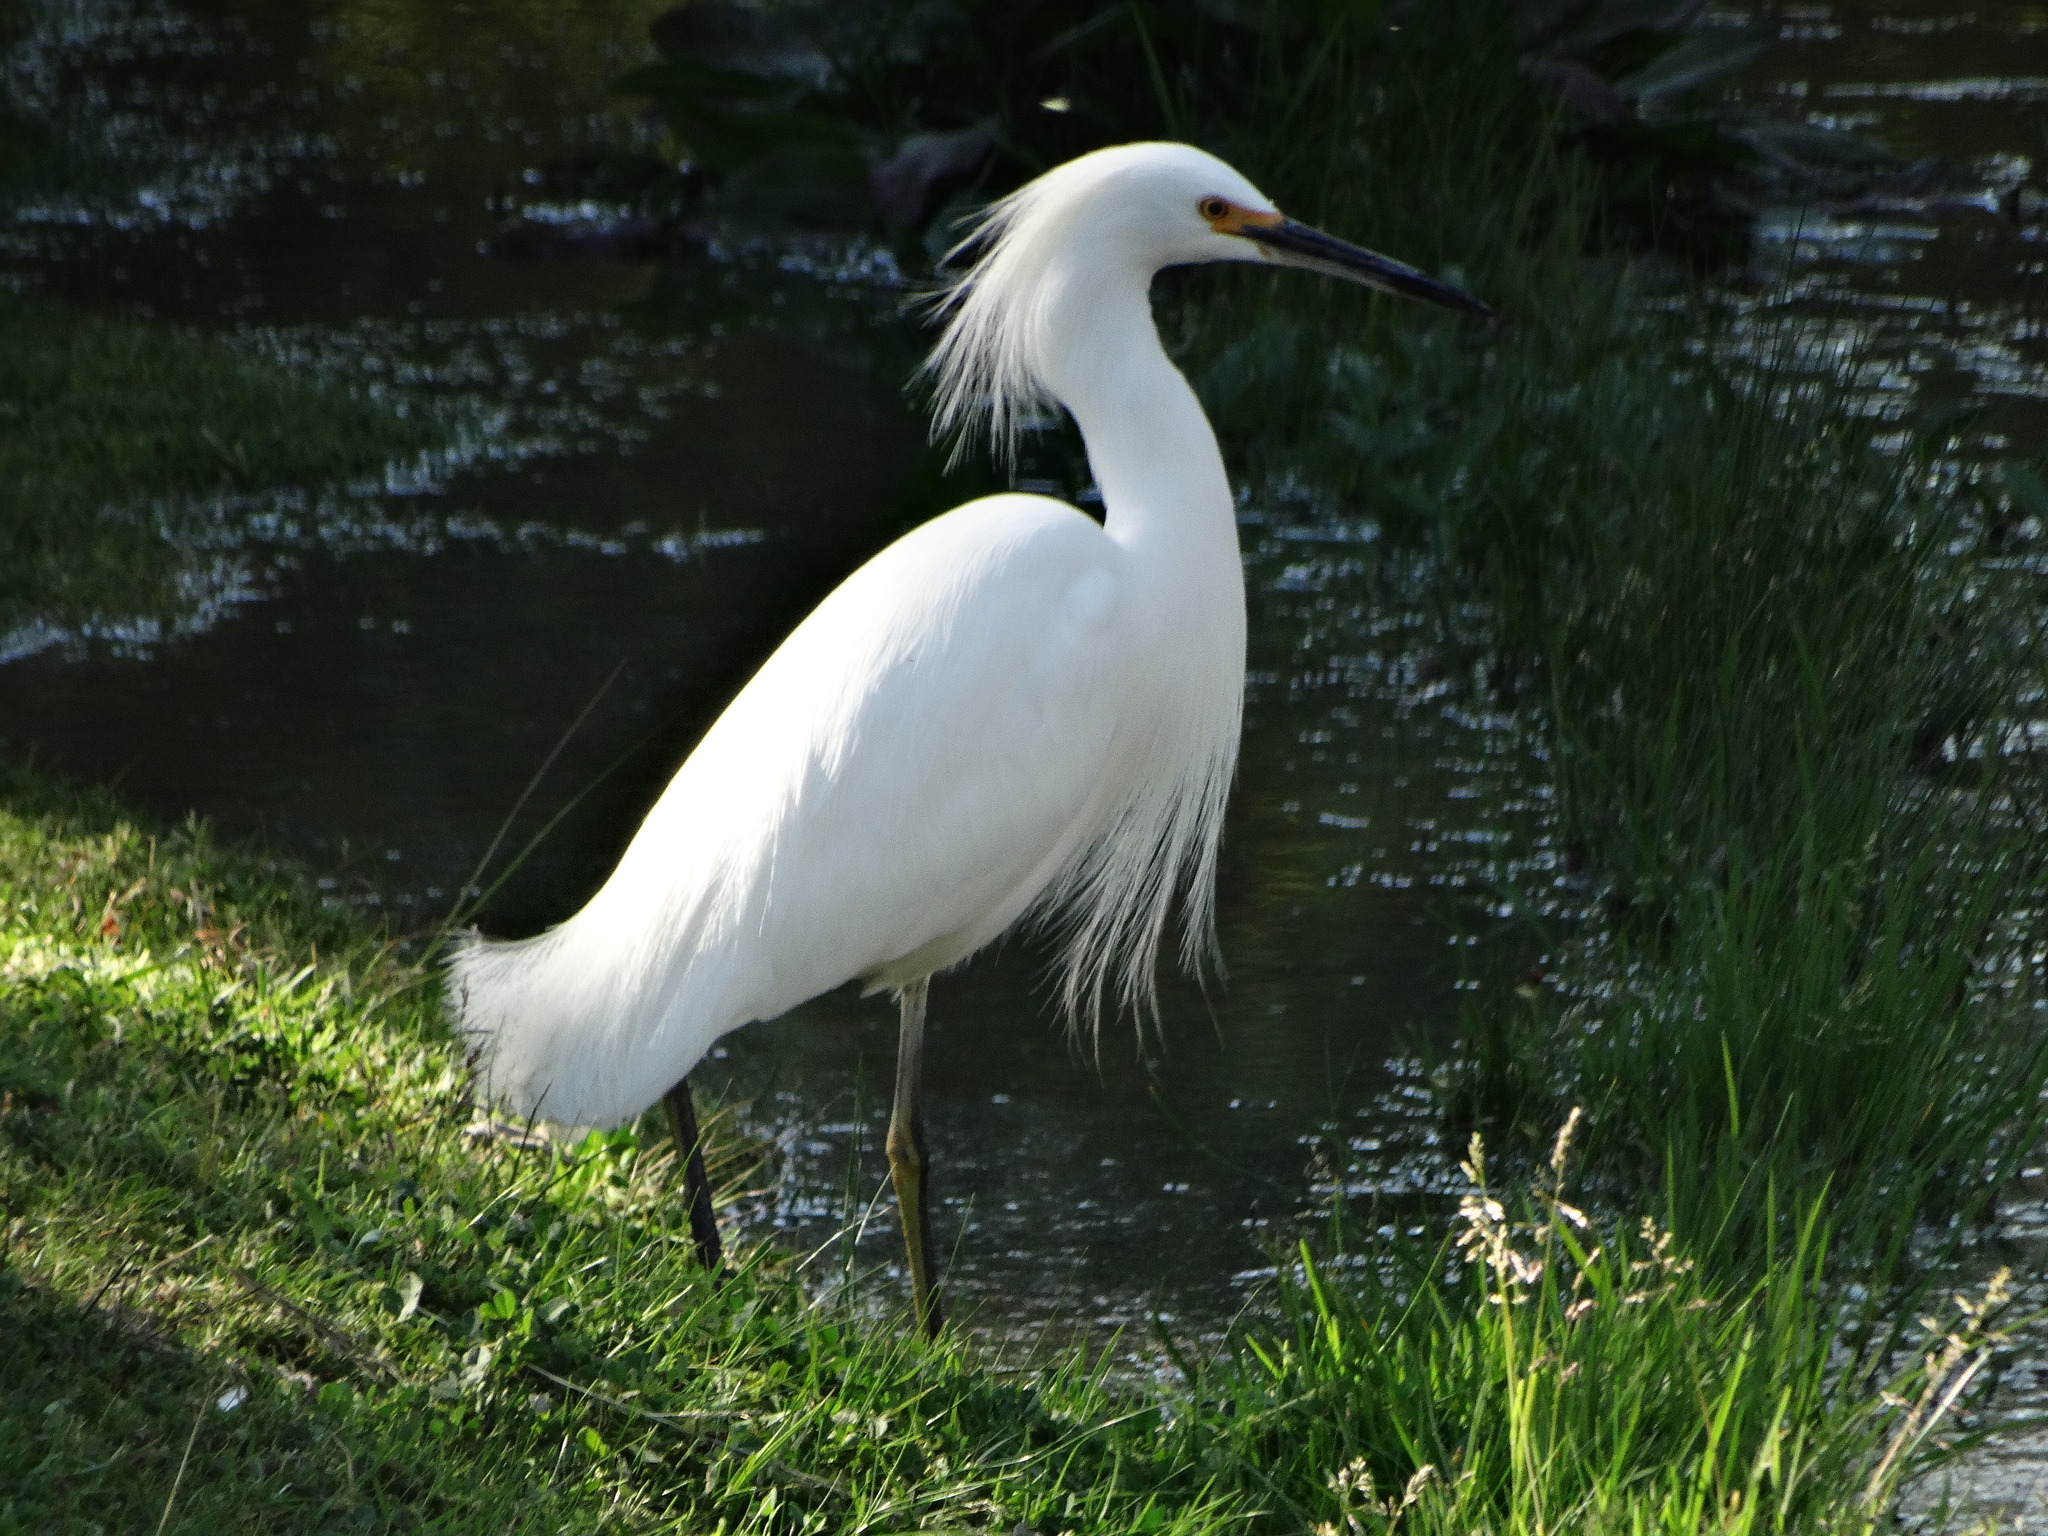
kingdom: Animalia
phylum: Chordata
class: Aves
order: Pelecaniformes
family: Ardeidae
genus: Egretta
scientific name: Egretta thula
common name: Snowy egret
